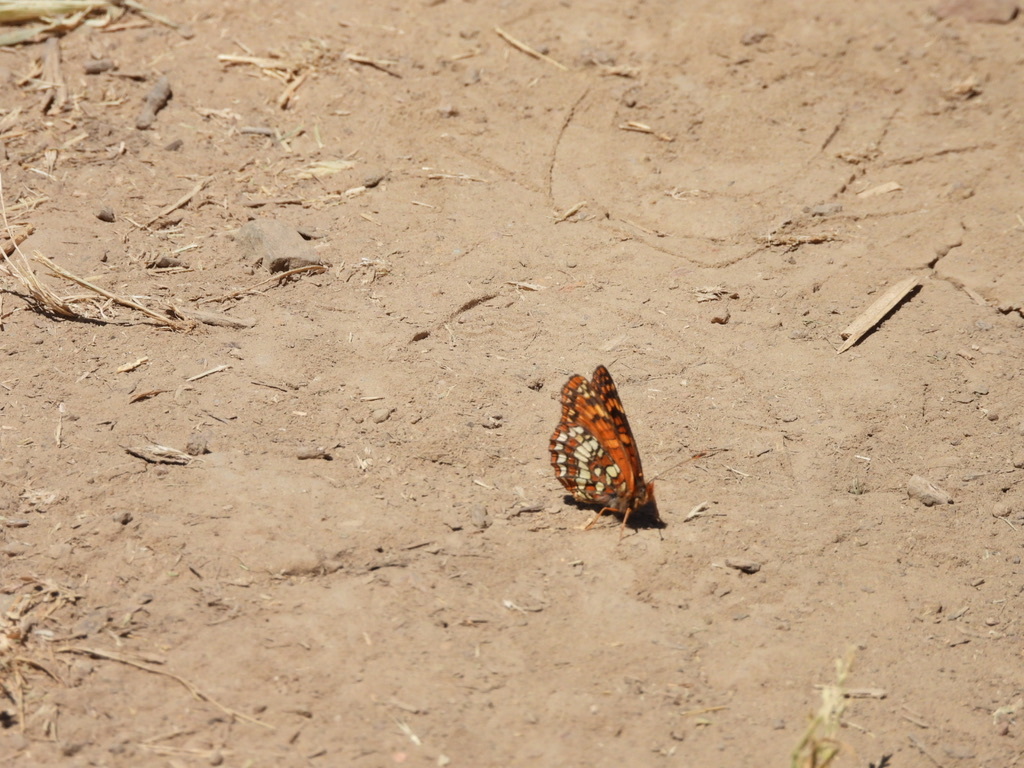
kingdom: Animalia
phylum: Arthropoda
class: Insecta
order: Lepidoptera
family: Nymphalidae
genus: Chlosyne
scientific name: Chlosyne palla
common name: Northern checkerspot
